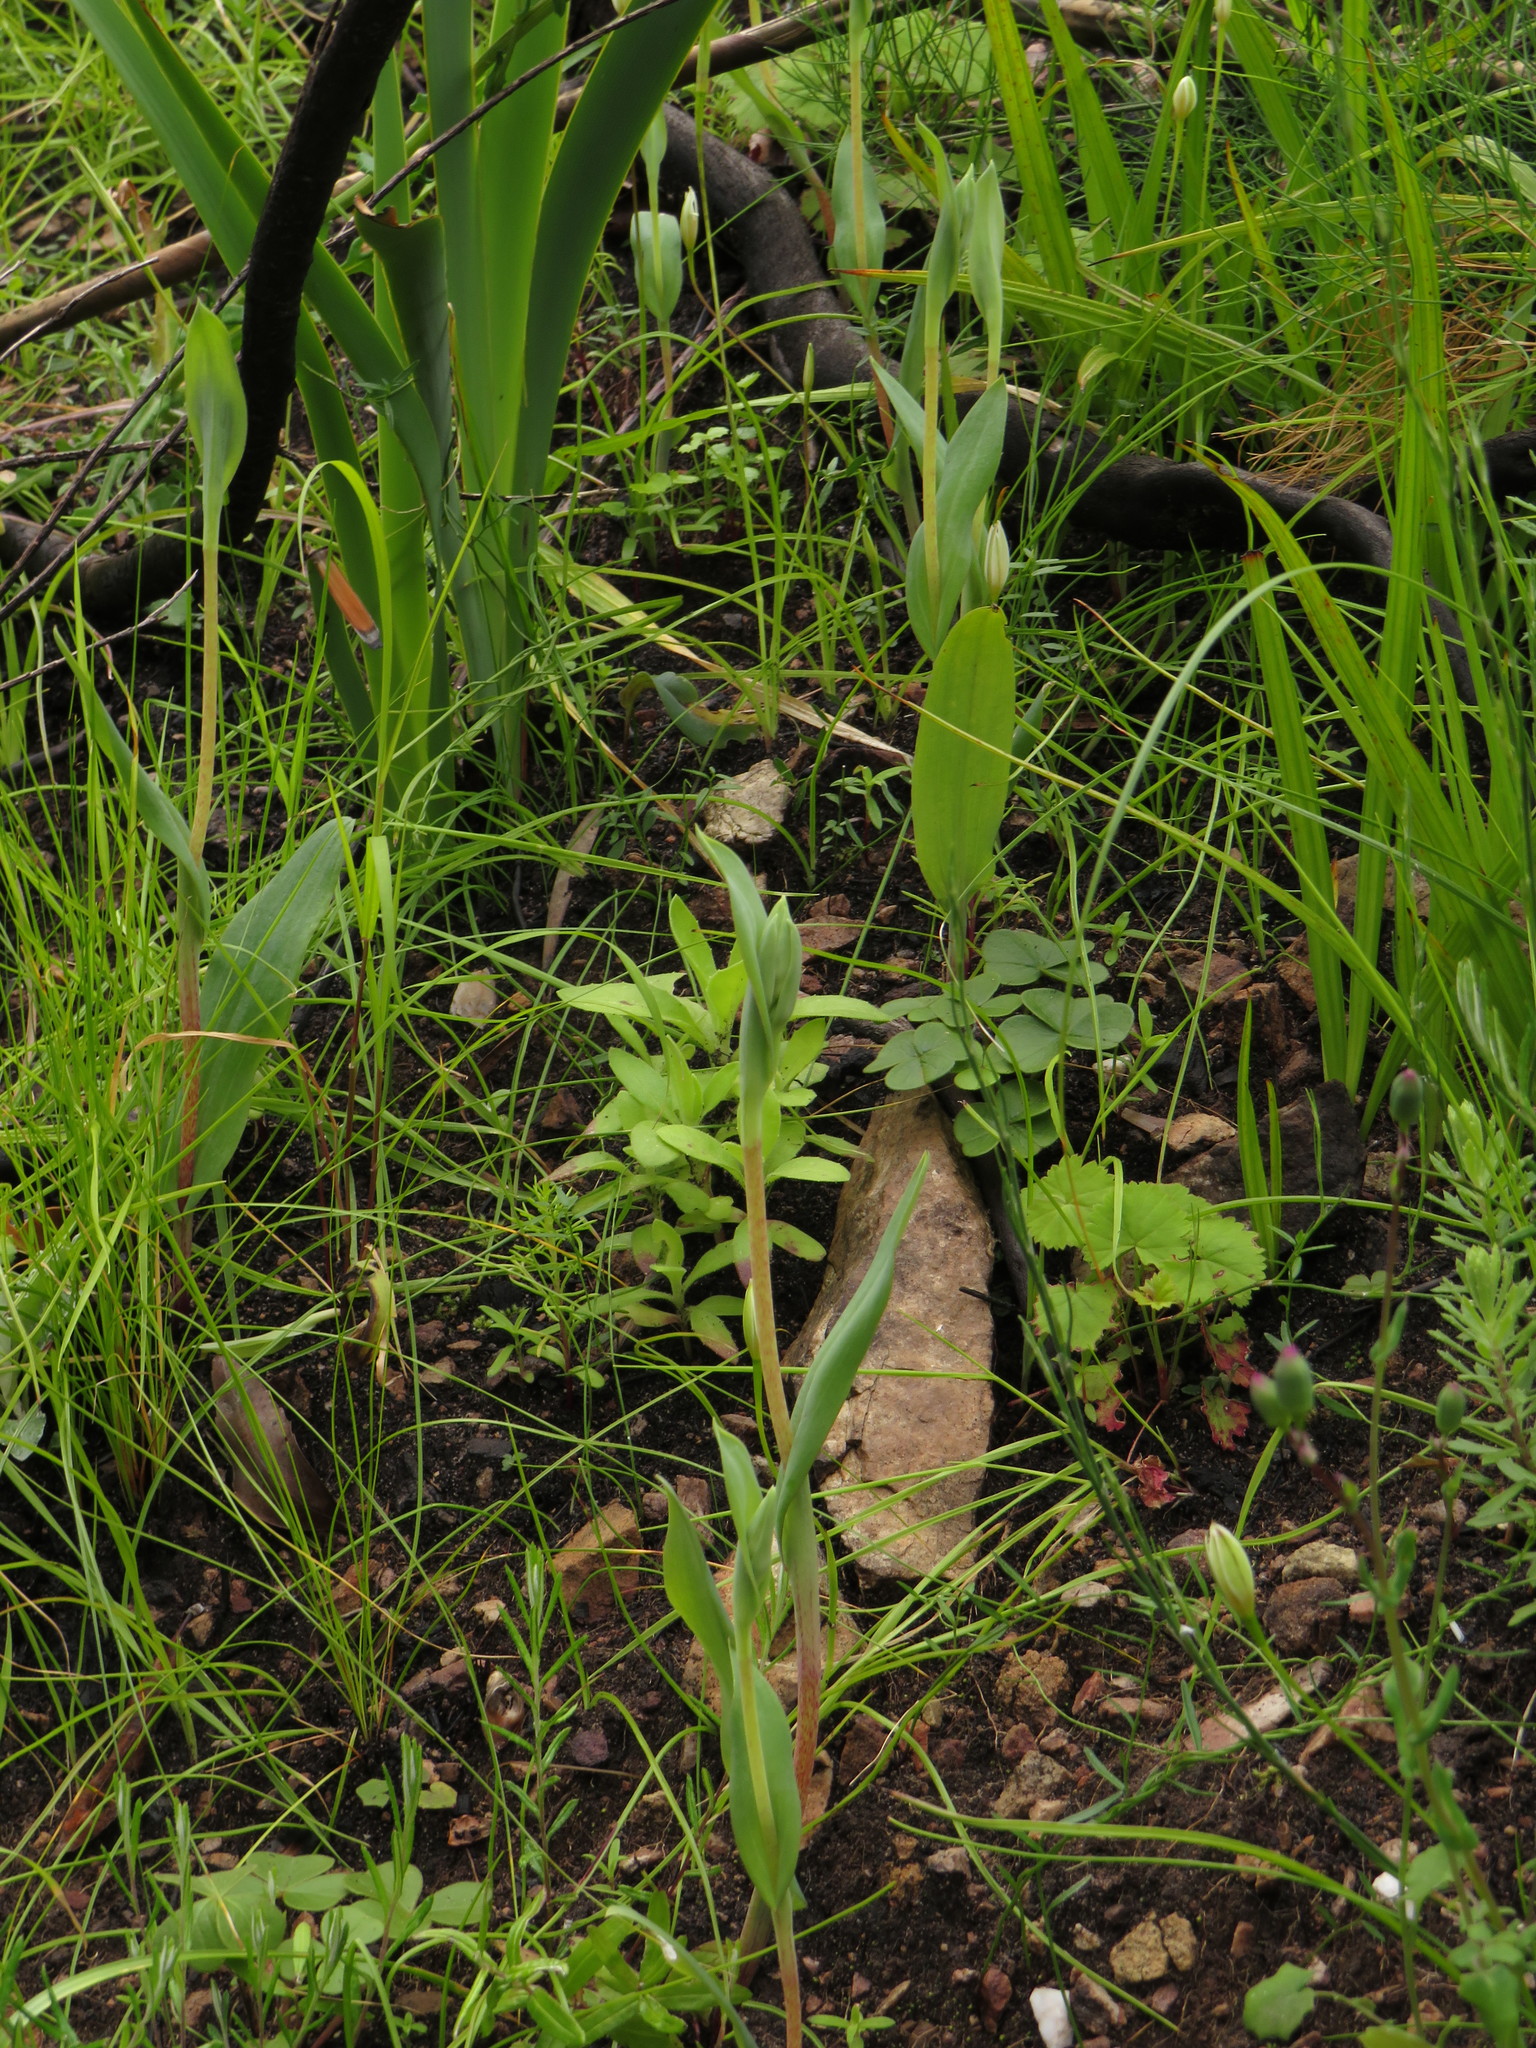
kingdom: Plantae
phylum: Tracheophyta
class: Liliopsida
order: Asparagales
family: Orchidaceae
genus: Pterygodium
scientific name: Pterygodium catholicum
